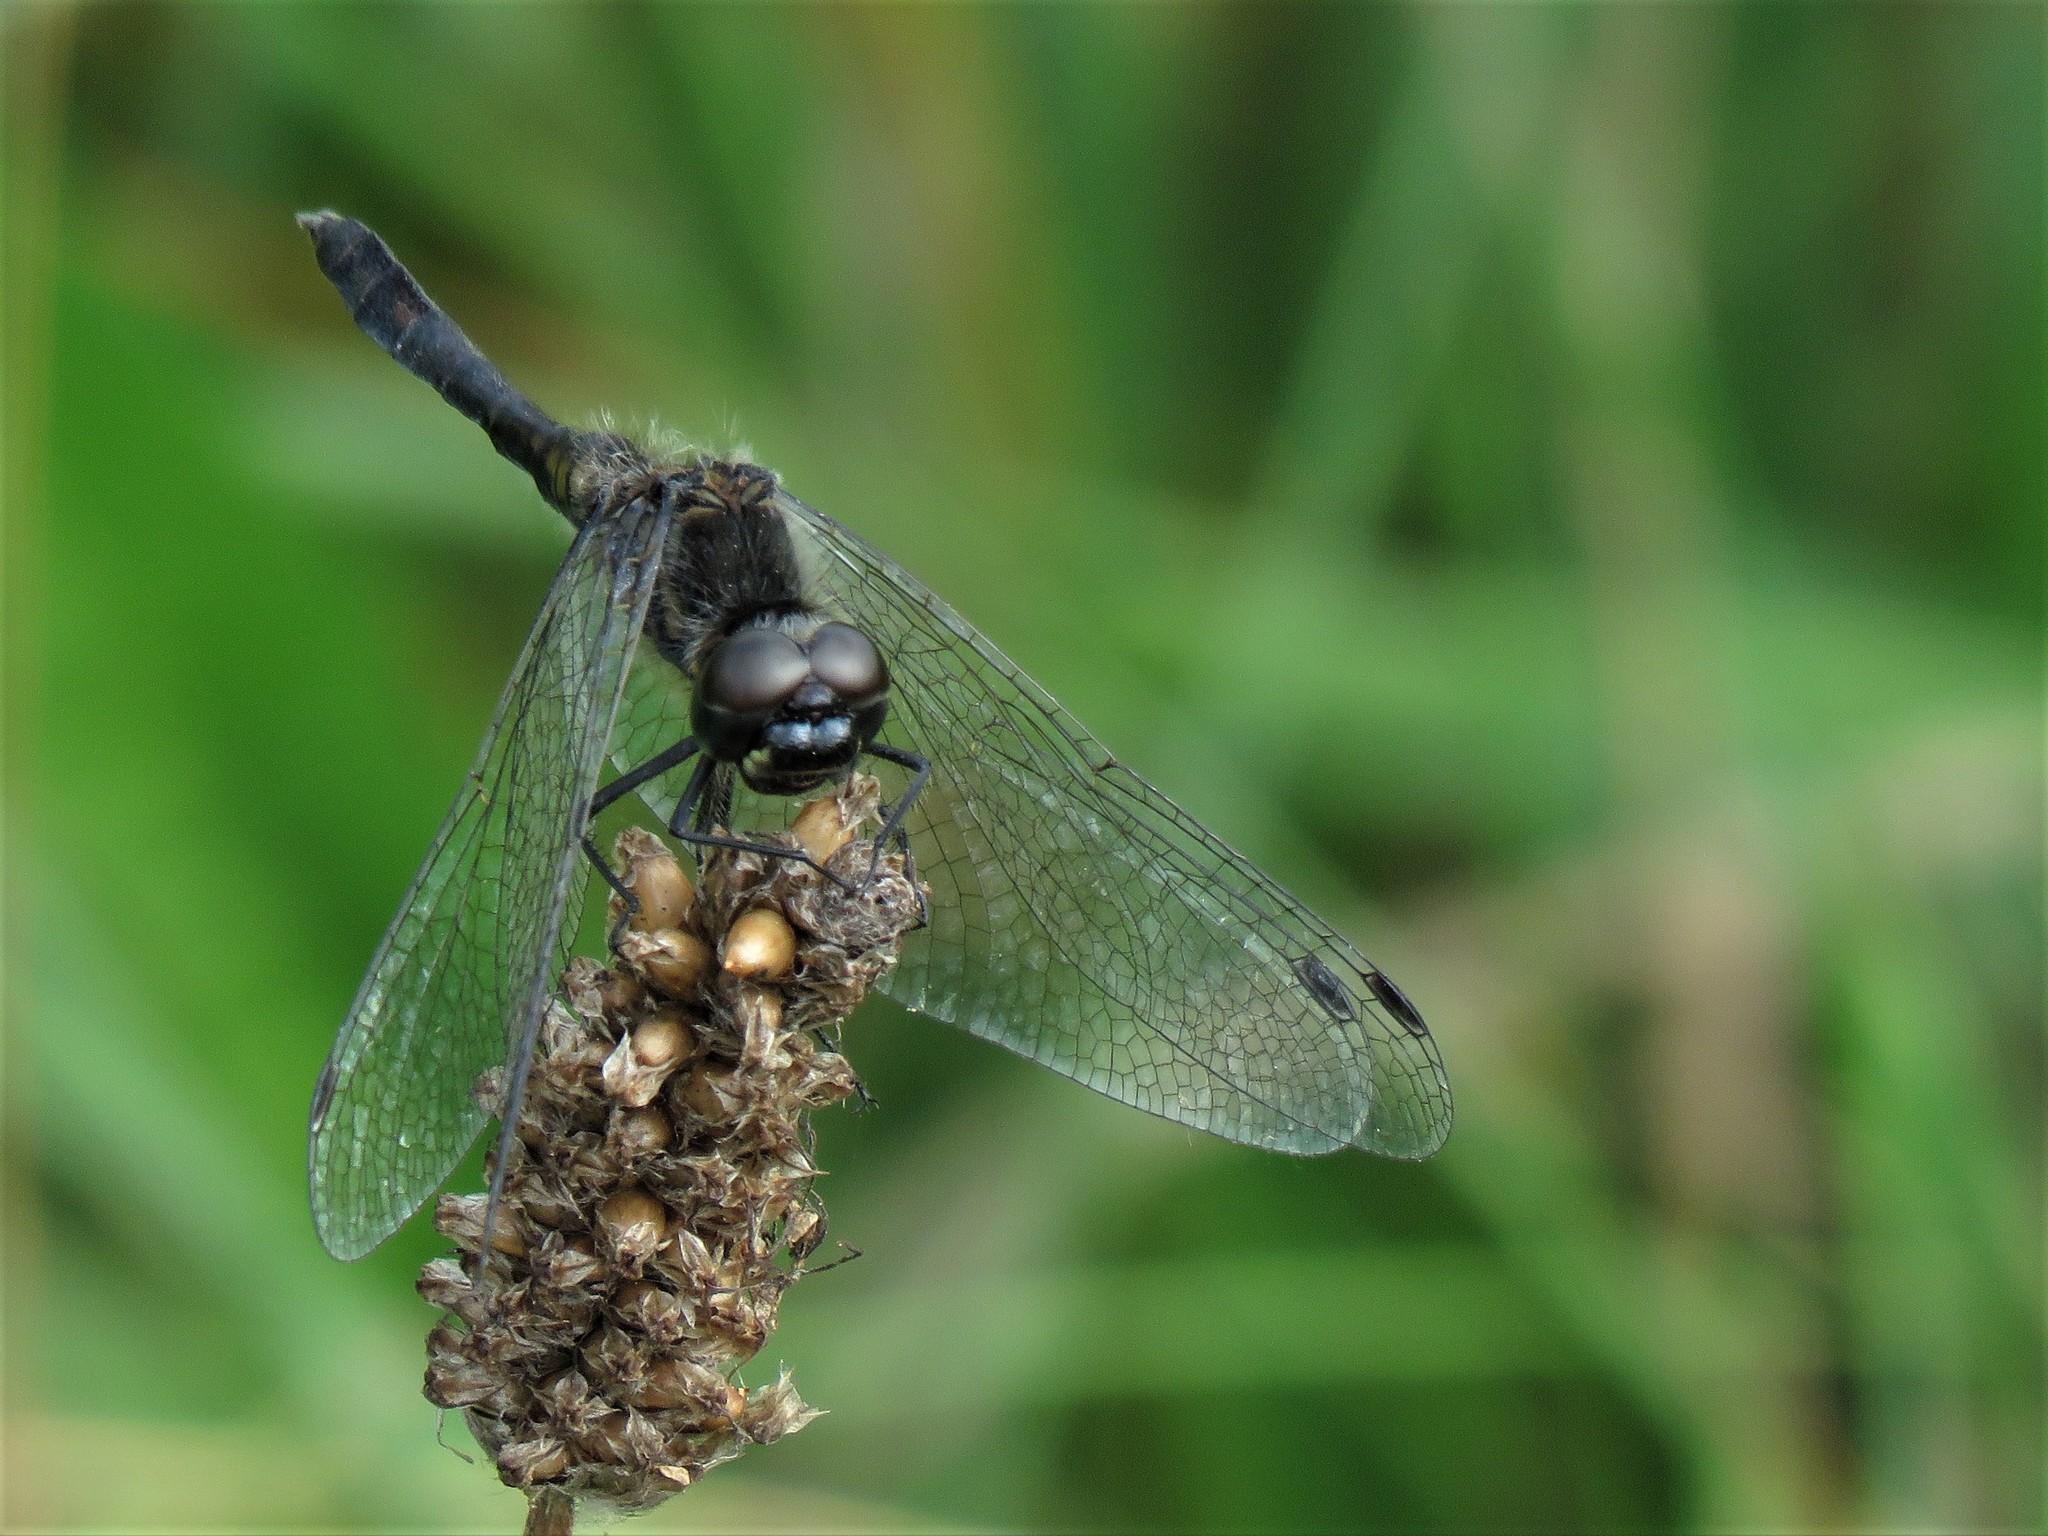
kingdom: Animalia
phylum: Arthropoda
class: Insecta
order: Odonata
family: Libellulidae
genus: Sympetrum
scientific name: Sympetrum danae
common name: Black darter
